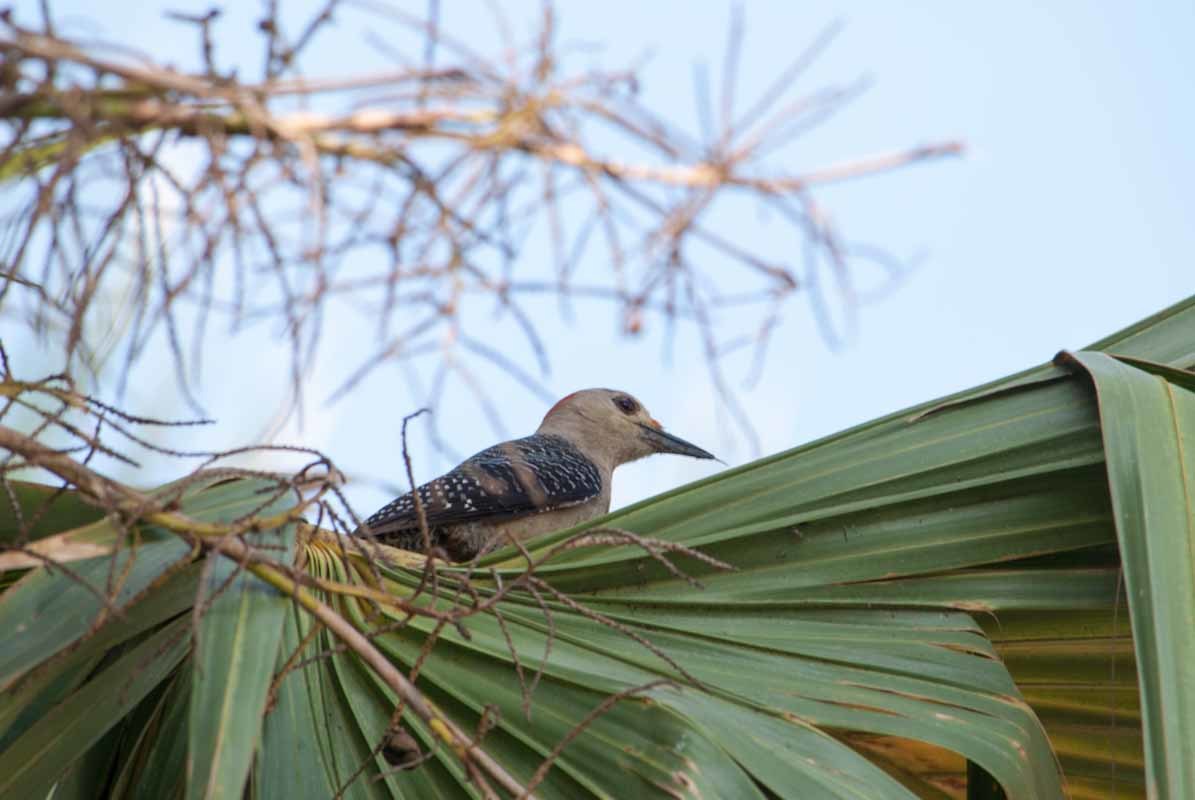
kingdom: Animalia
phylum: Chordata
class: Aves
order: Piciformes
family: Picidae
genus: Melanerpes
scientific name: Melanerpes aurifrons
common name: Golden-fronted woodpecker
